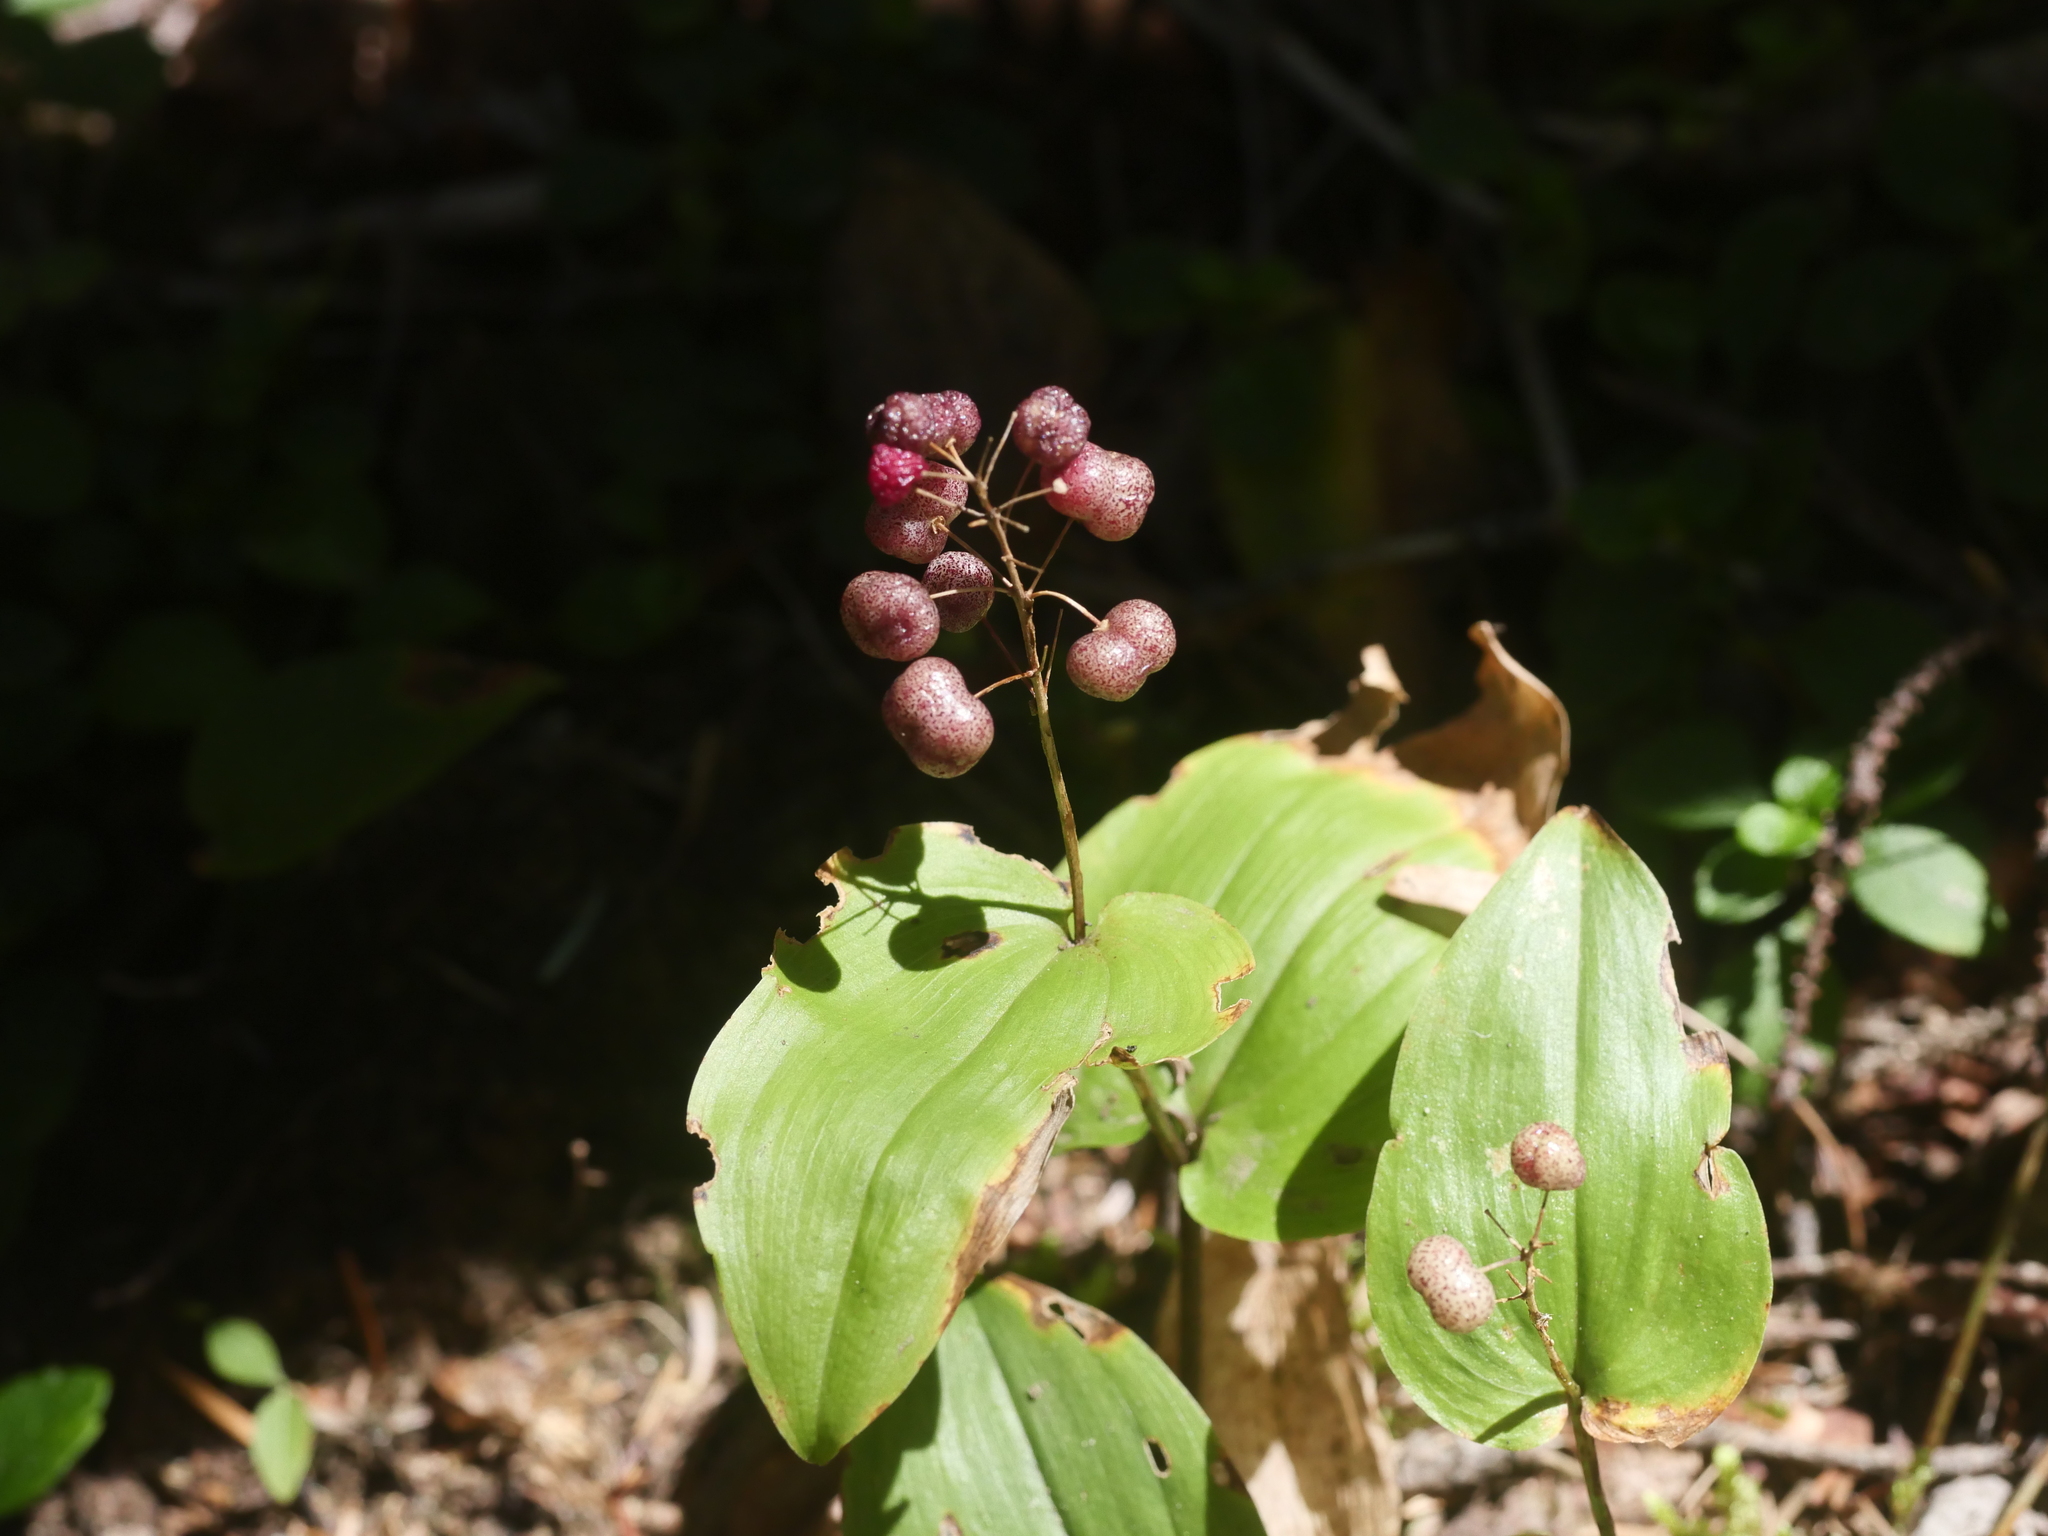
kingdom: Plantae
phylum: Tracheophyta
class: Liliopsida
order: Asparagales
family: Asparagaceae
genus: Maianthemum
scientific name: Maianthemum canadense
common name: False lily-of-the-valley
